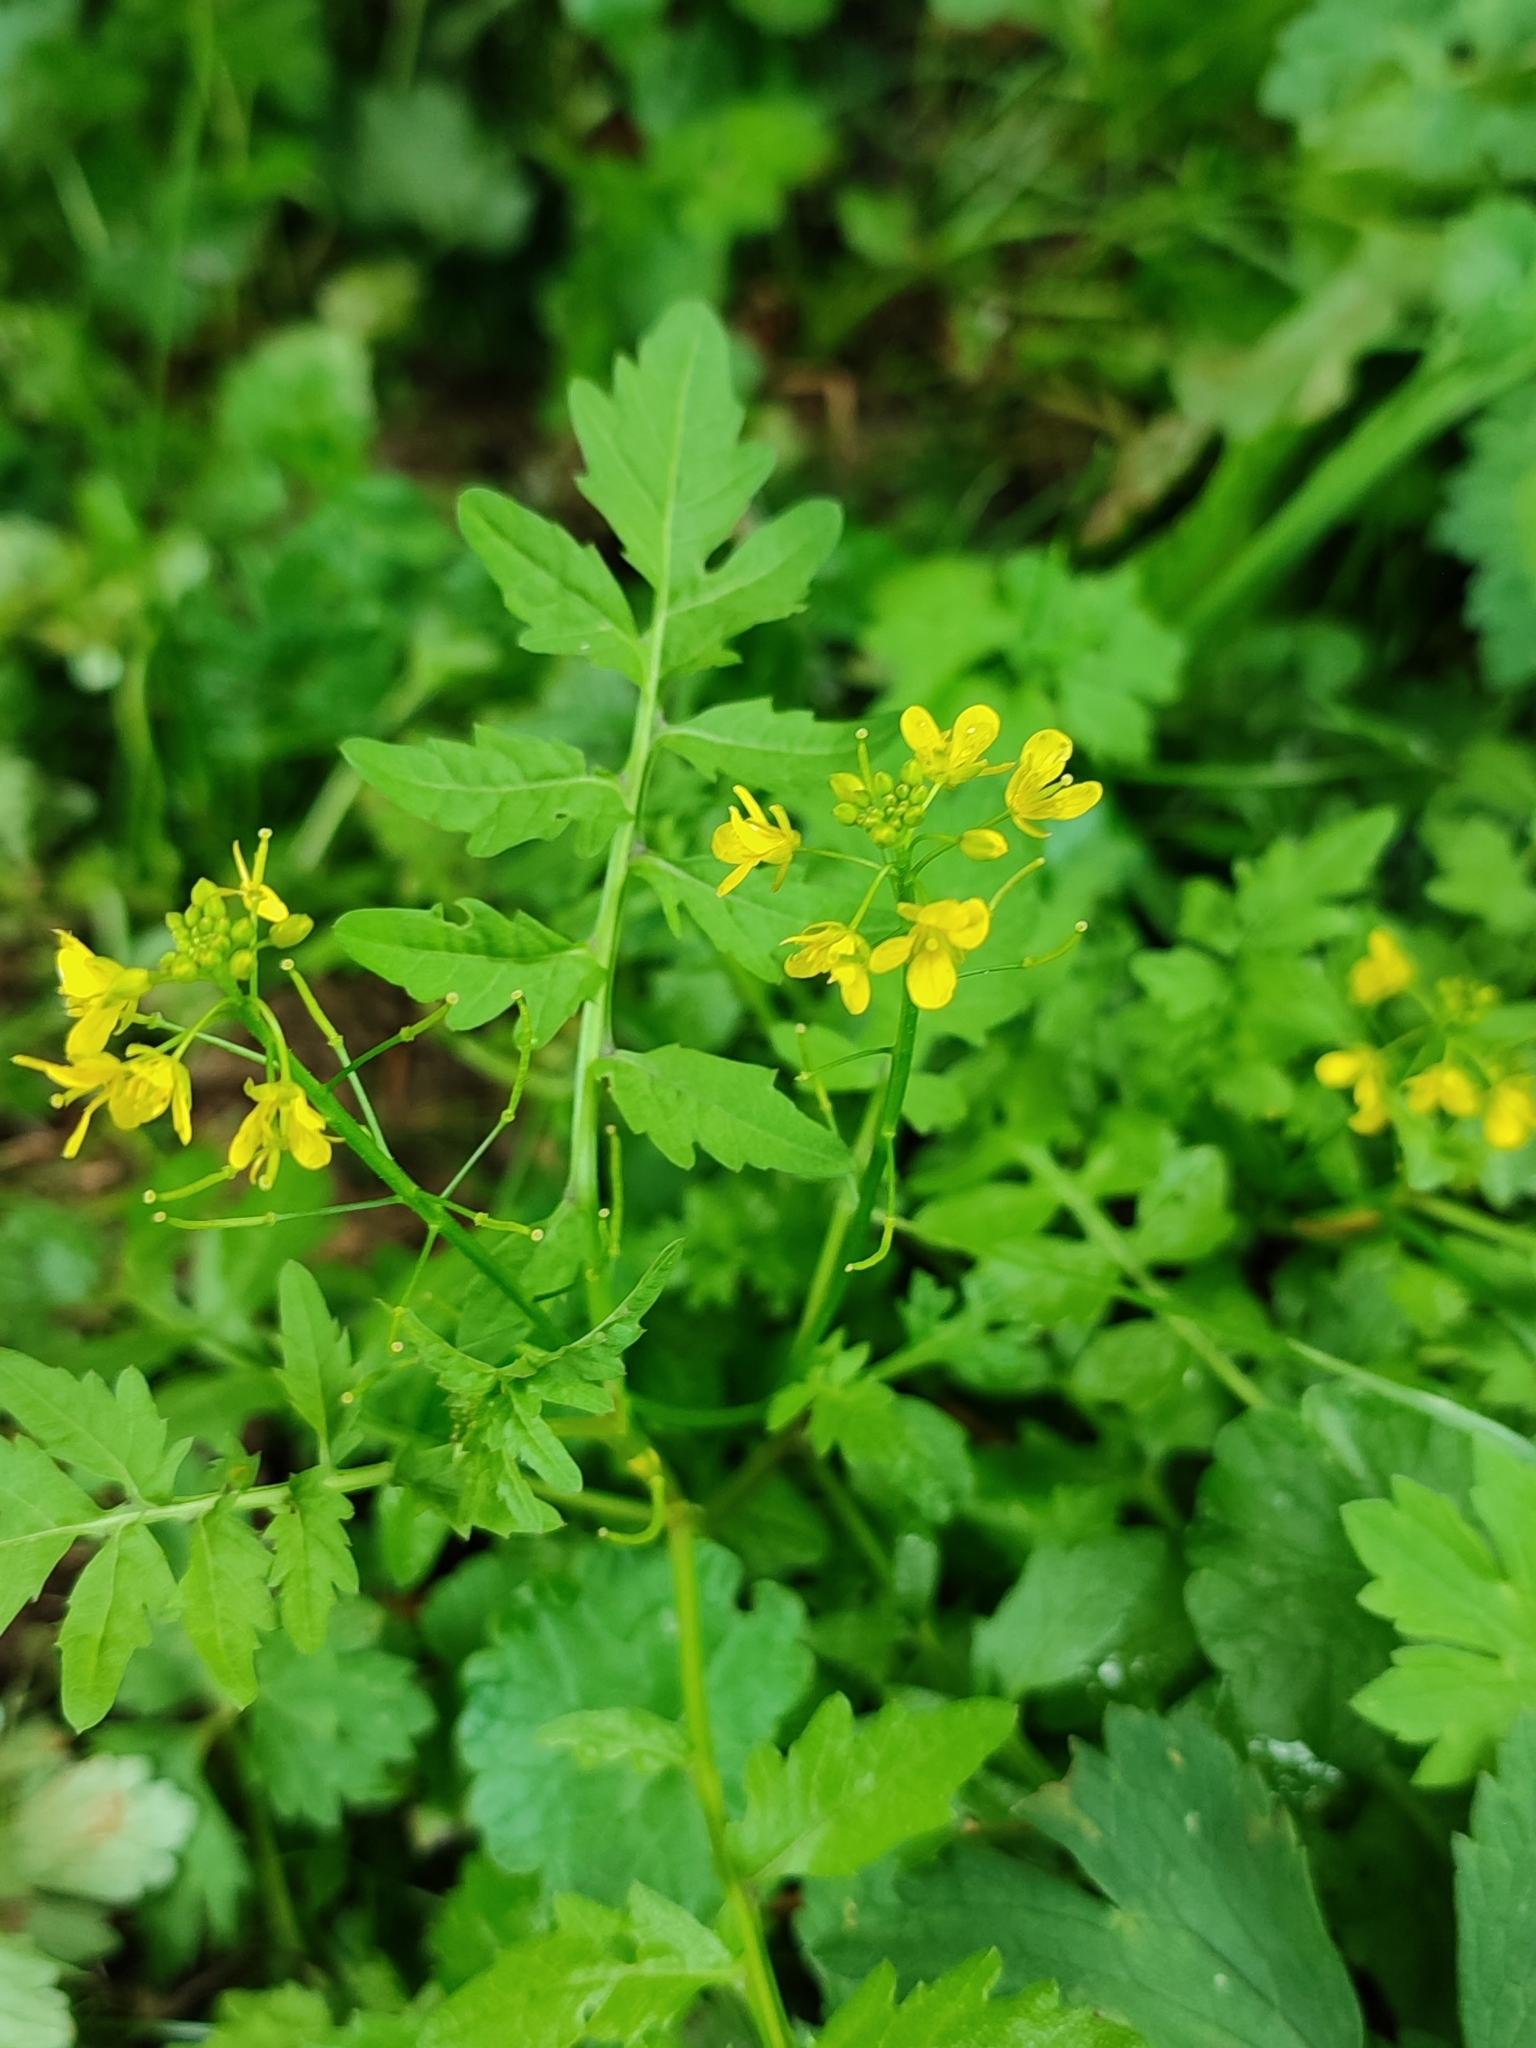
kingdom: Plantae
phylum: Tracheophyta
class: Magnoliopsida
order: Brassicales
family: Brassicaceae
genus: Rorippa
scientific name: Rorippa sylvestris
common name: Creeping yellowcress
